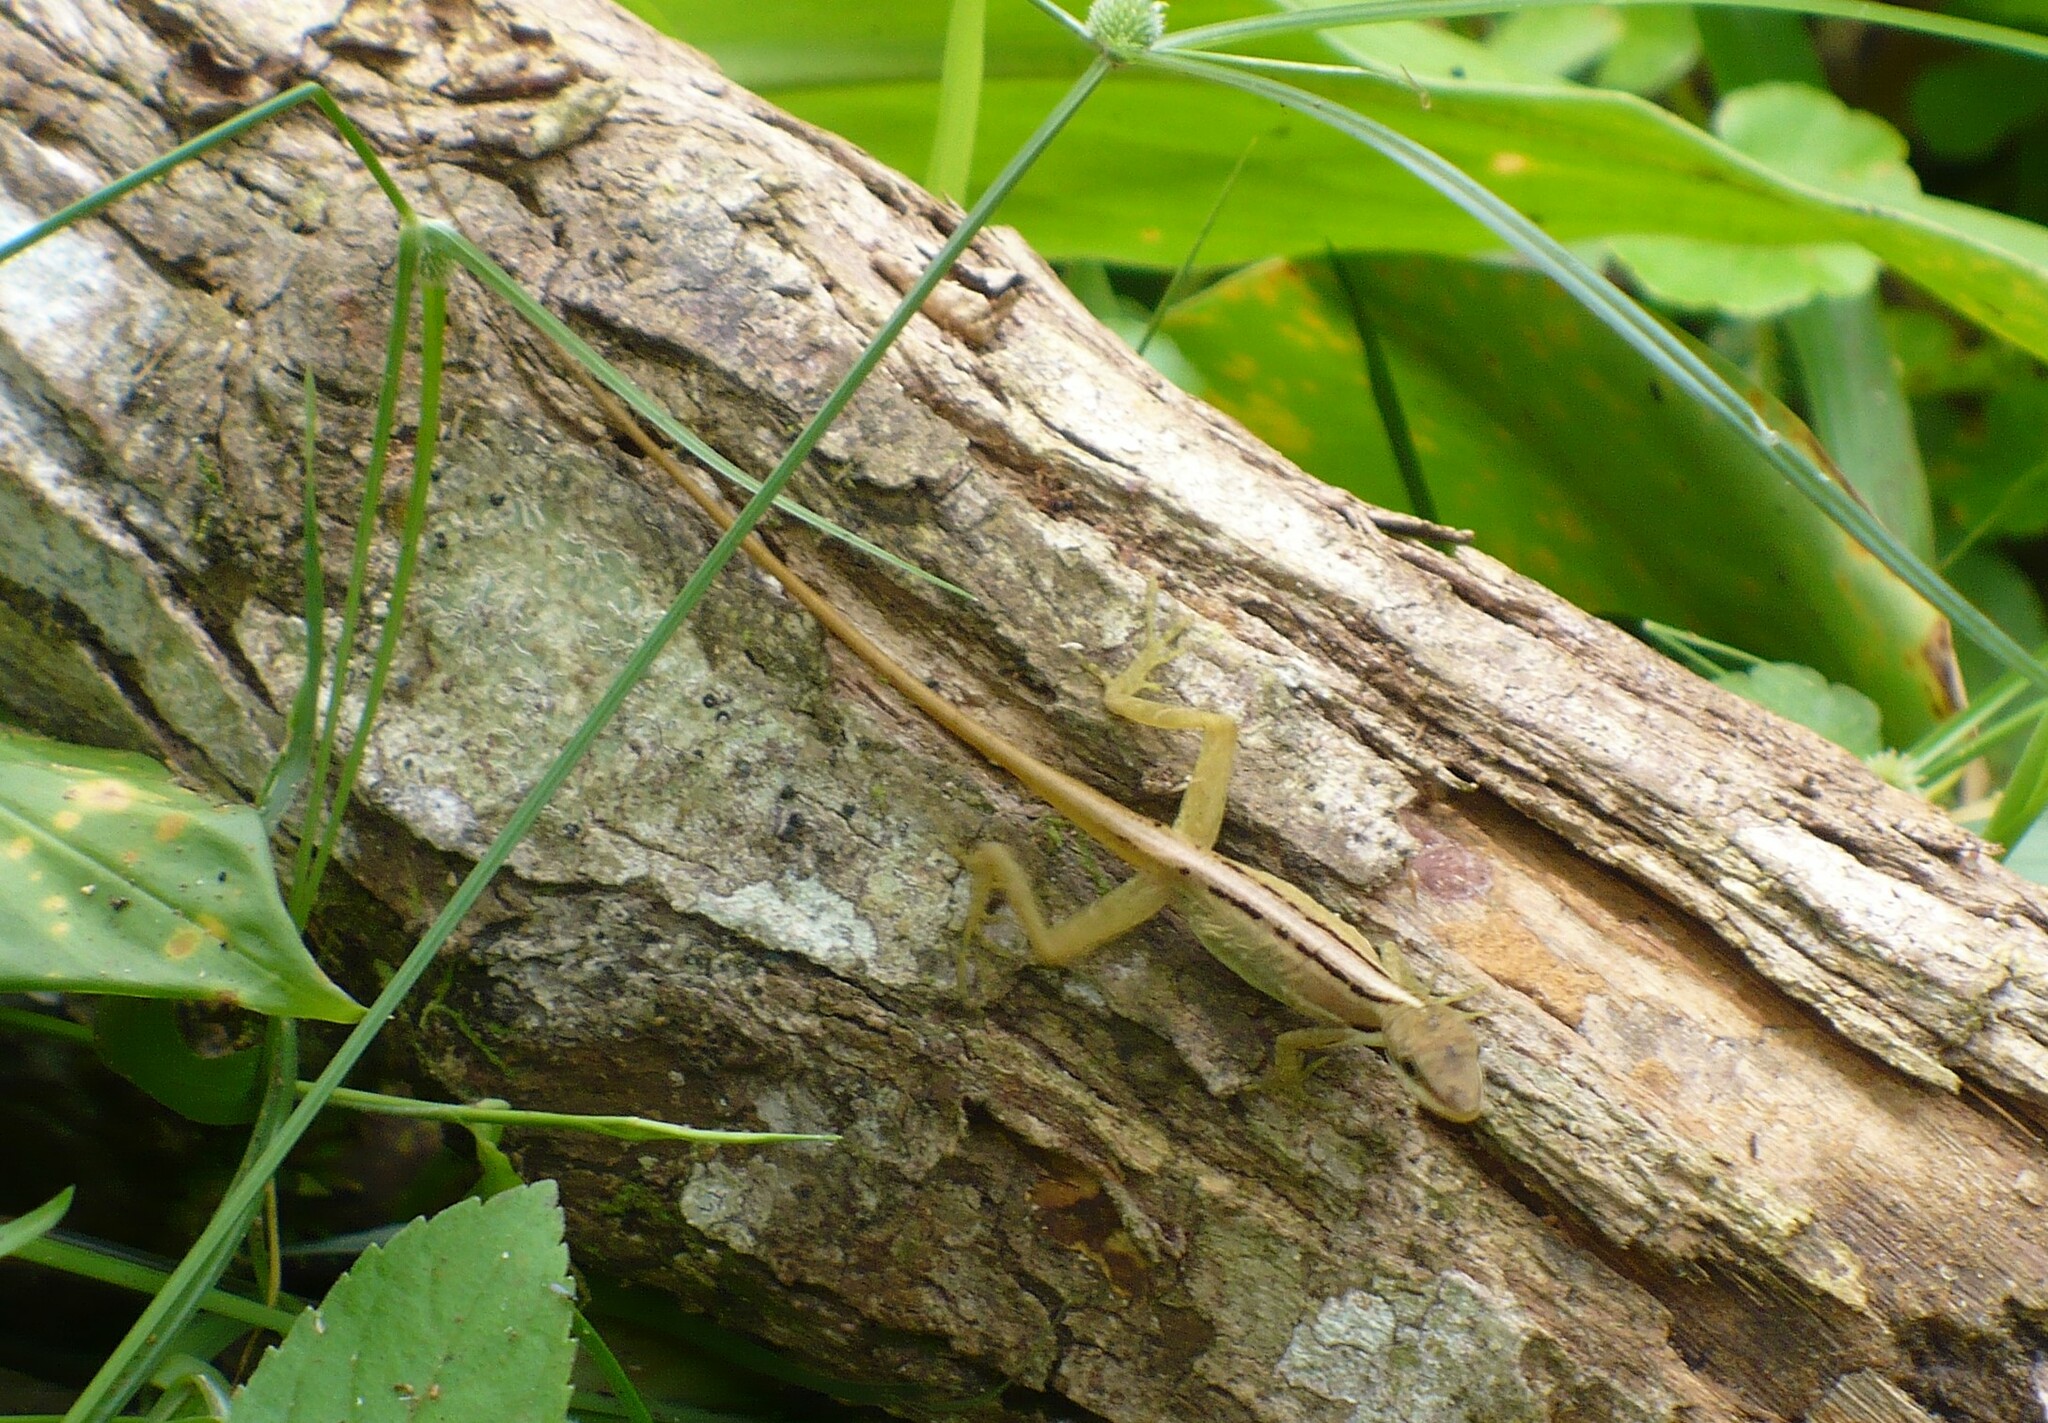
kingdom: Animalia
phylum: Chordata
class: Squamata
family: Dactyloidae
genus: Anolis
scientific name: Anolis limifrons
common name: Border anole
